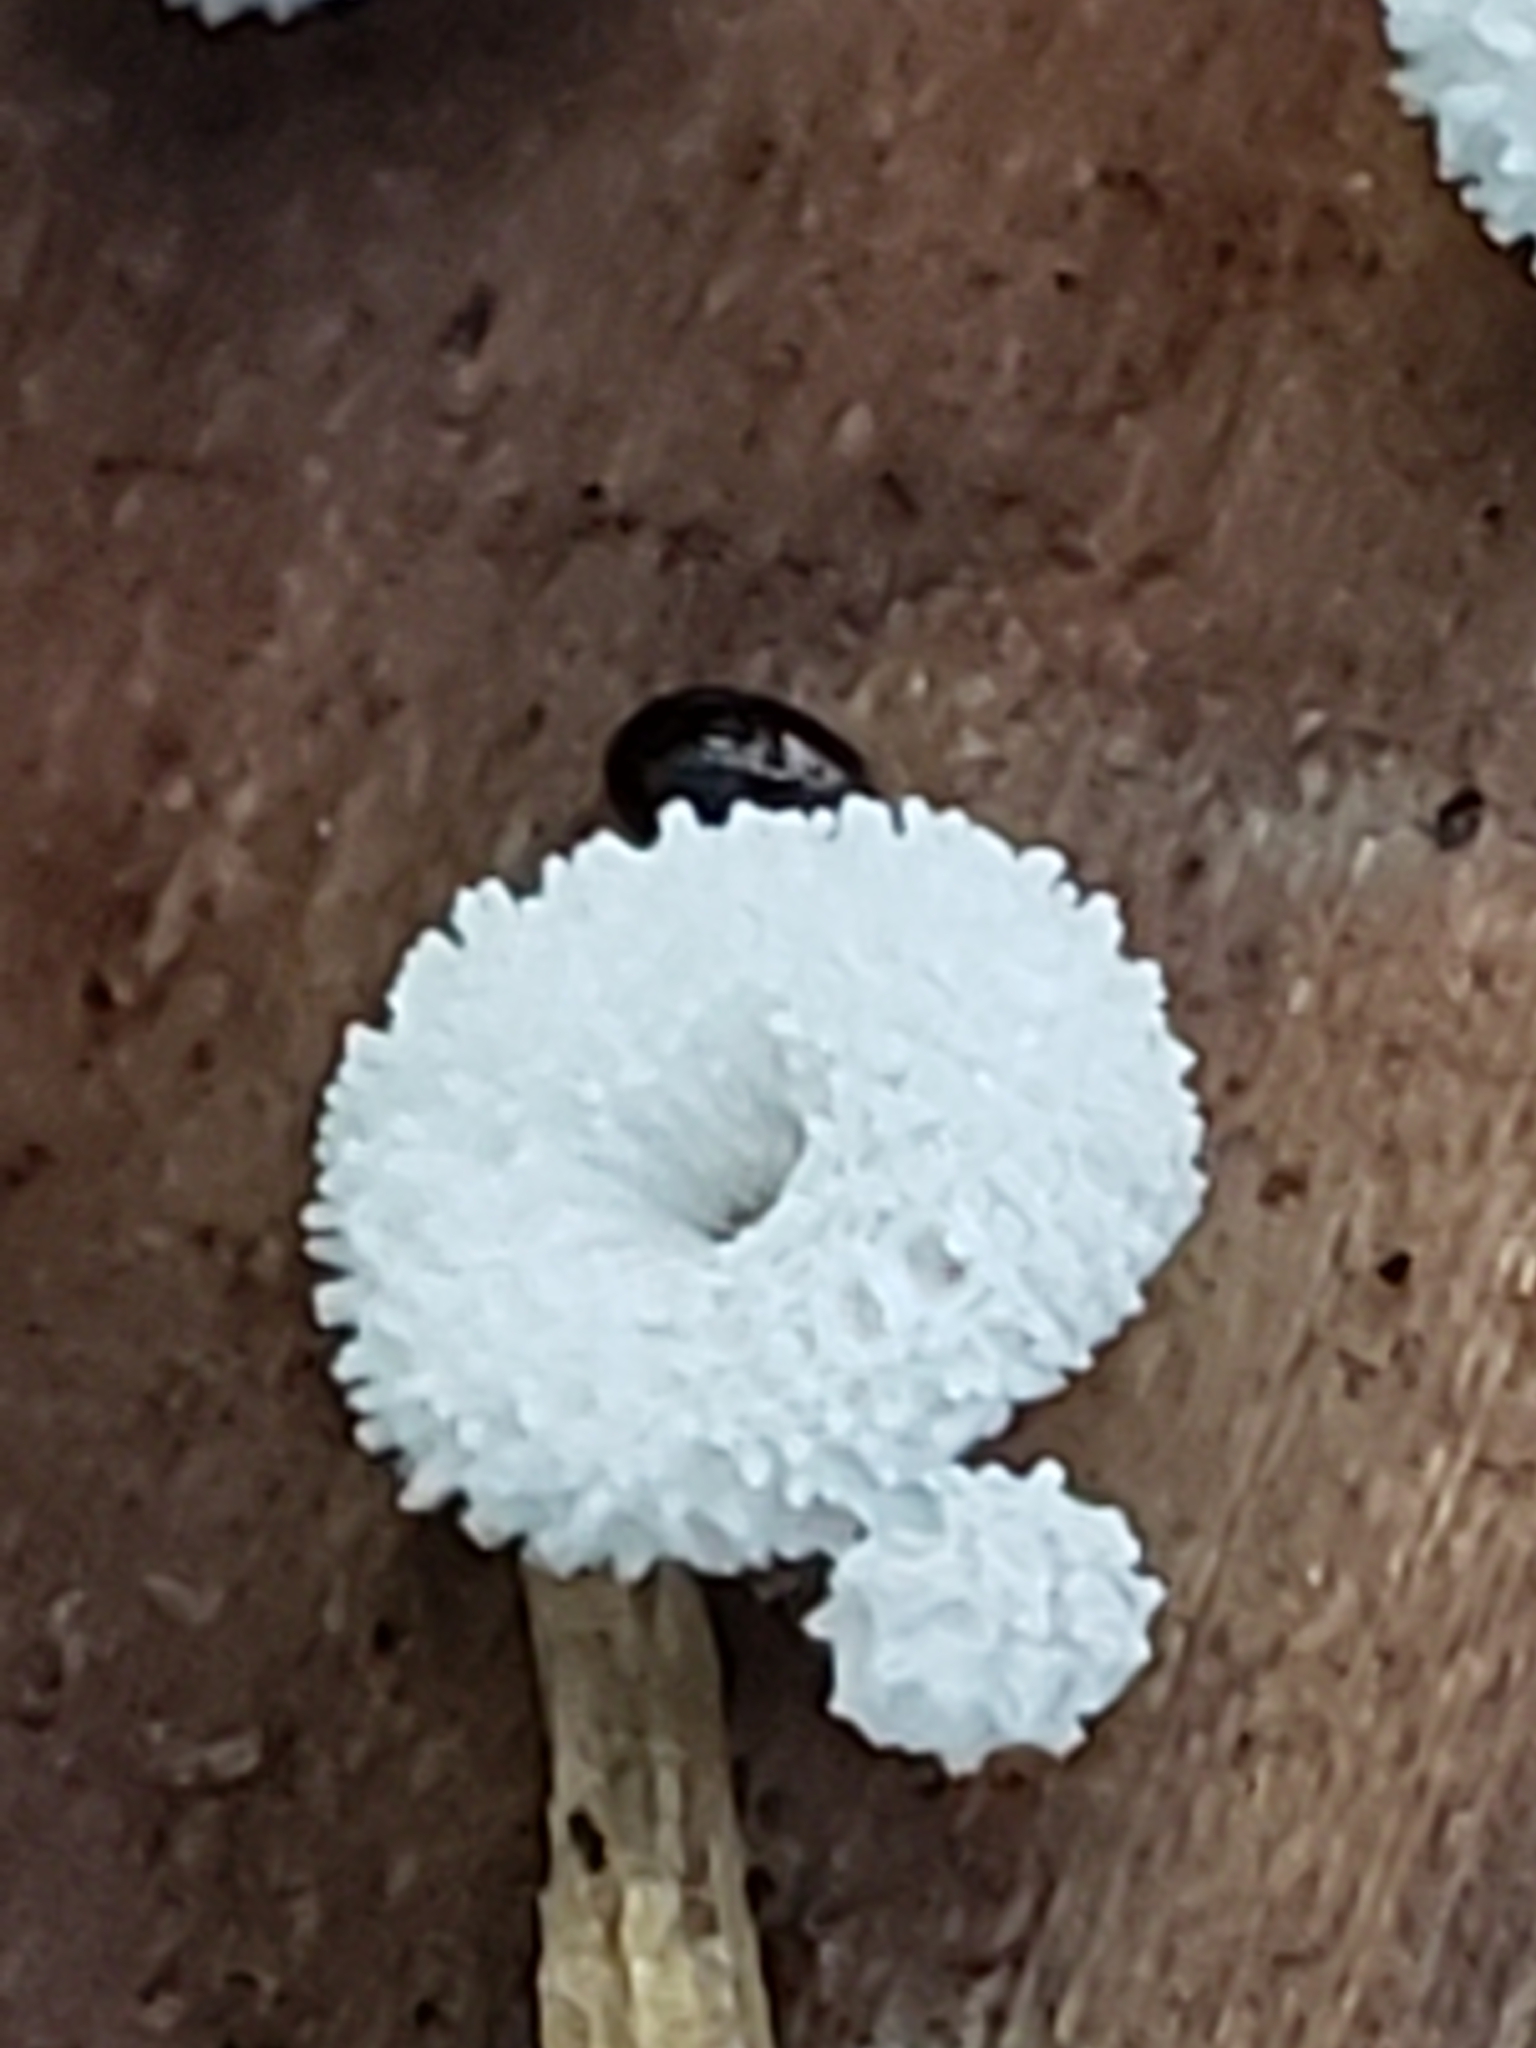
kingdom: Protozoa
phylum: Mycetozoa
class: Protosteliomycetes
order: Ceratiomyxales
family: Ceratiomyxaceae
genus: Ceratiomyxa
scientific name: Ceratiomyxa fruticulosa
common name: Honeycomb coral slime mold
